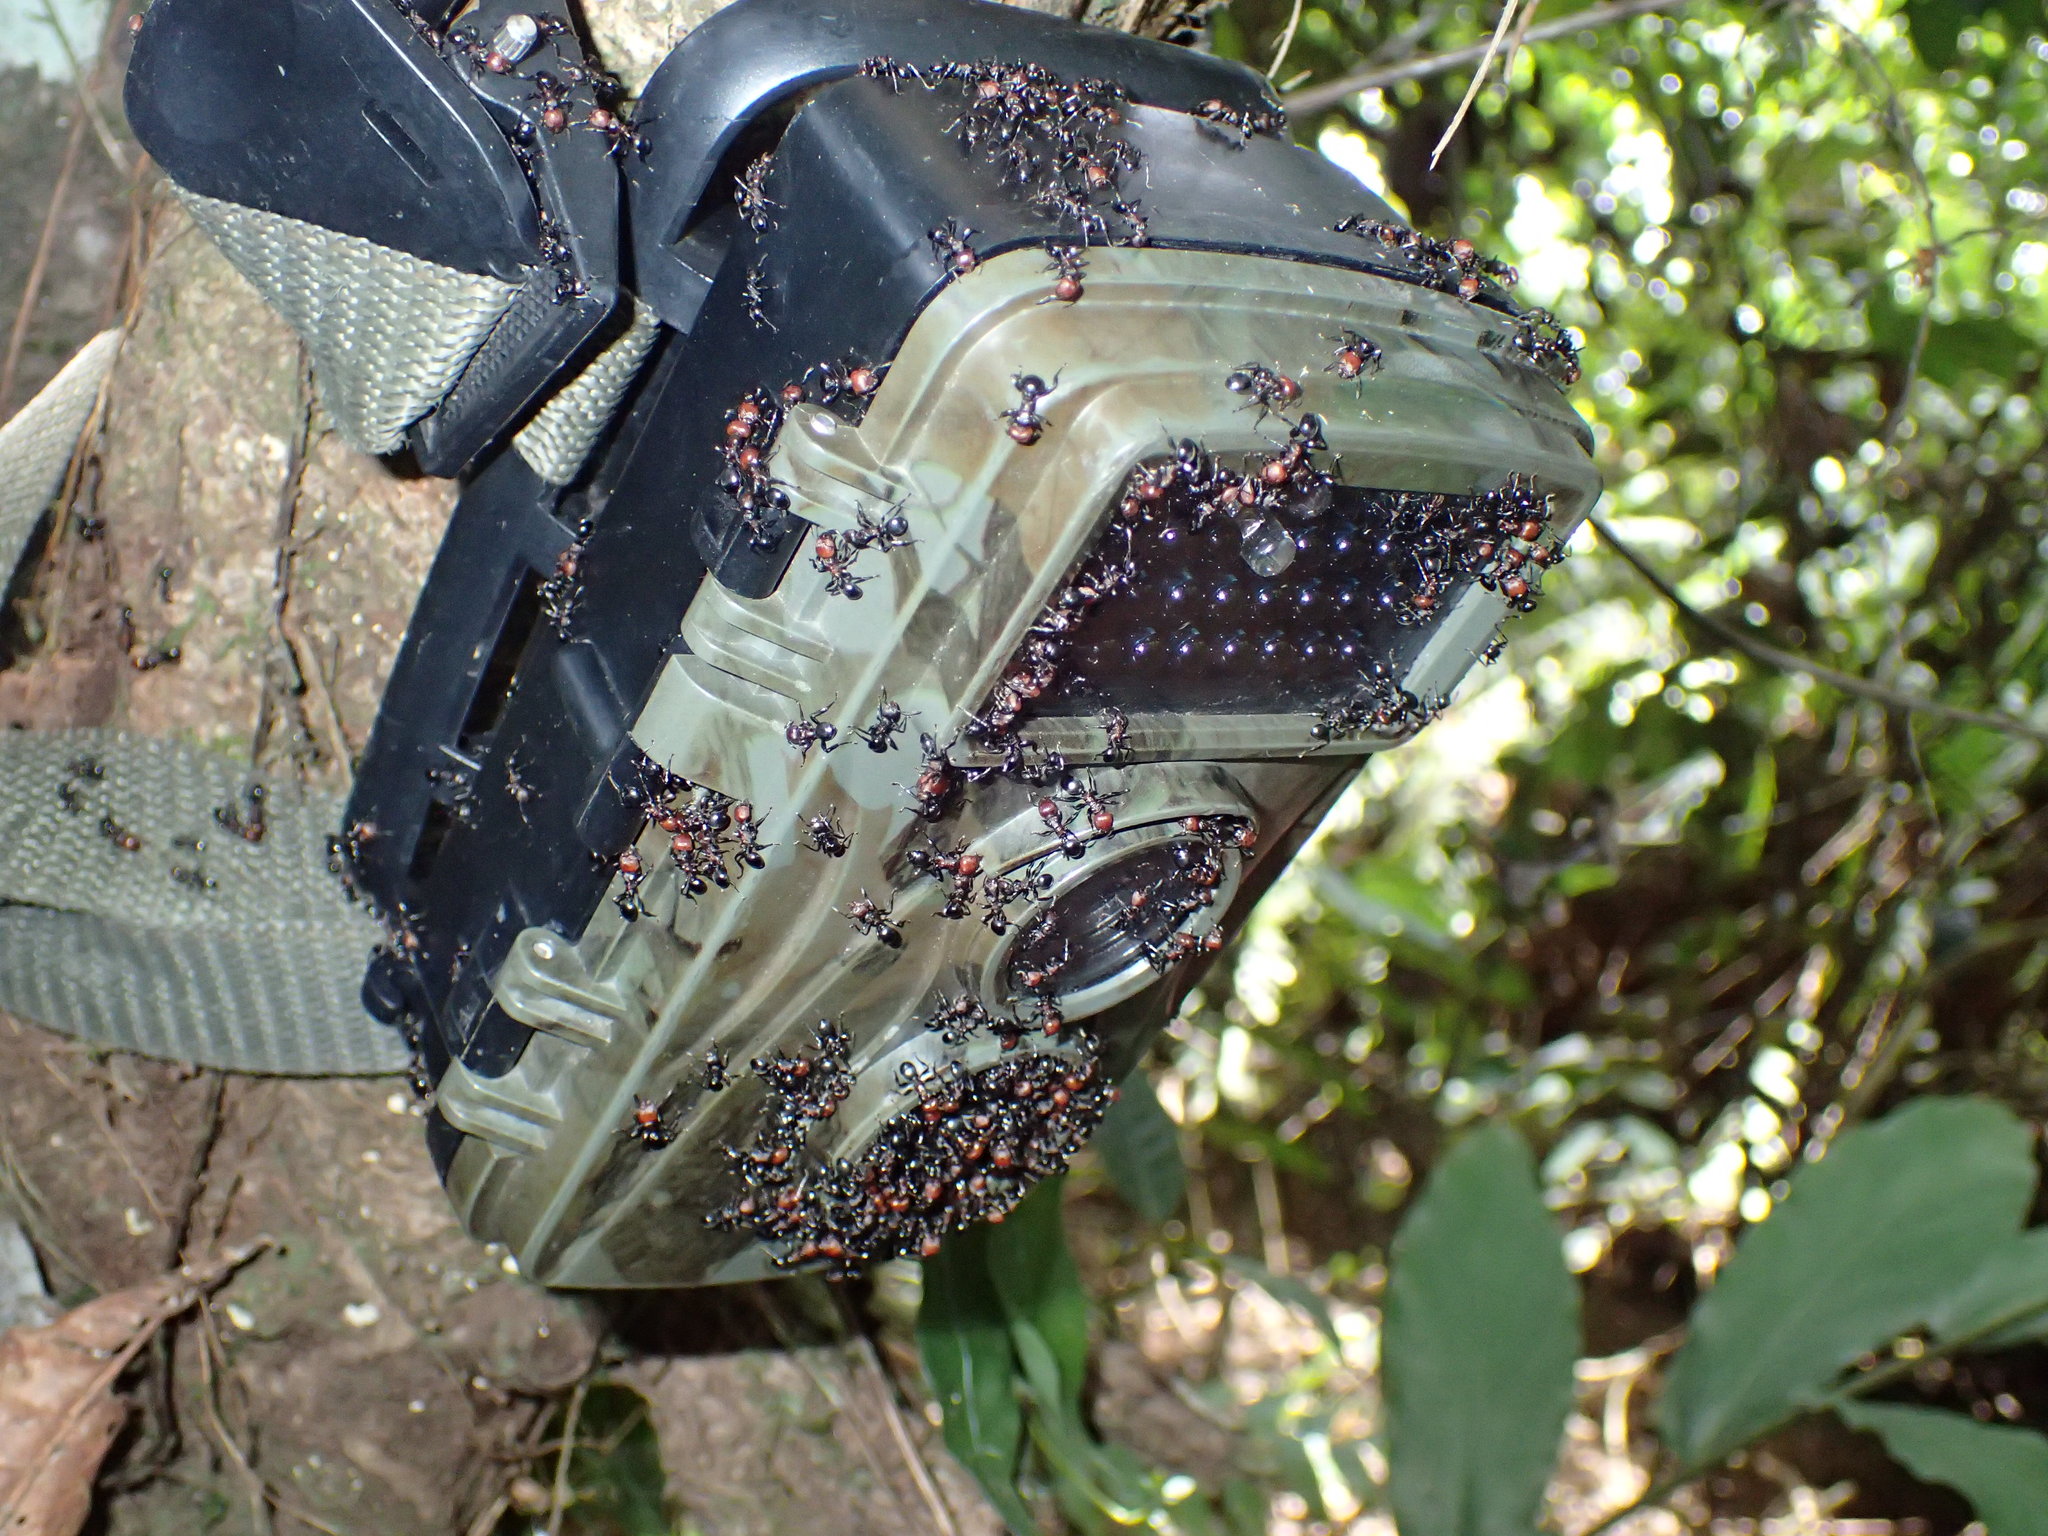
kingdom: Animalia
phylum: Arthropoda
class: Insecta
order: Hymenoptera
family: Formicidae
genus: Atopomyrmex
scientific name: Atopomyrmex mocquerysi
